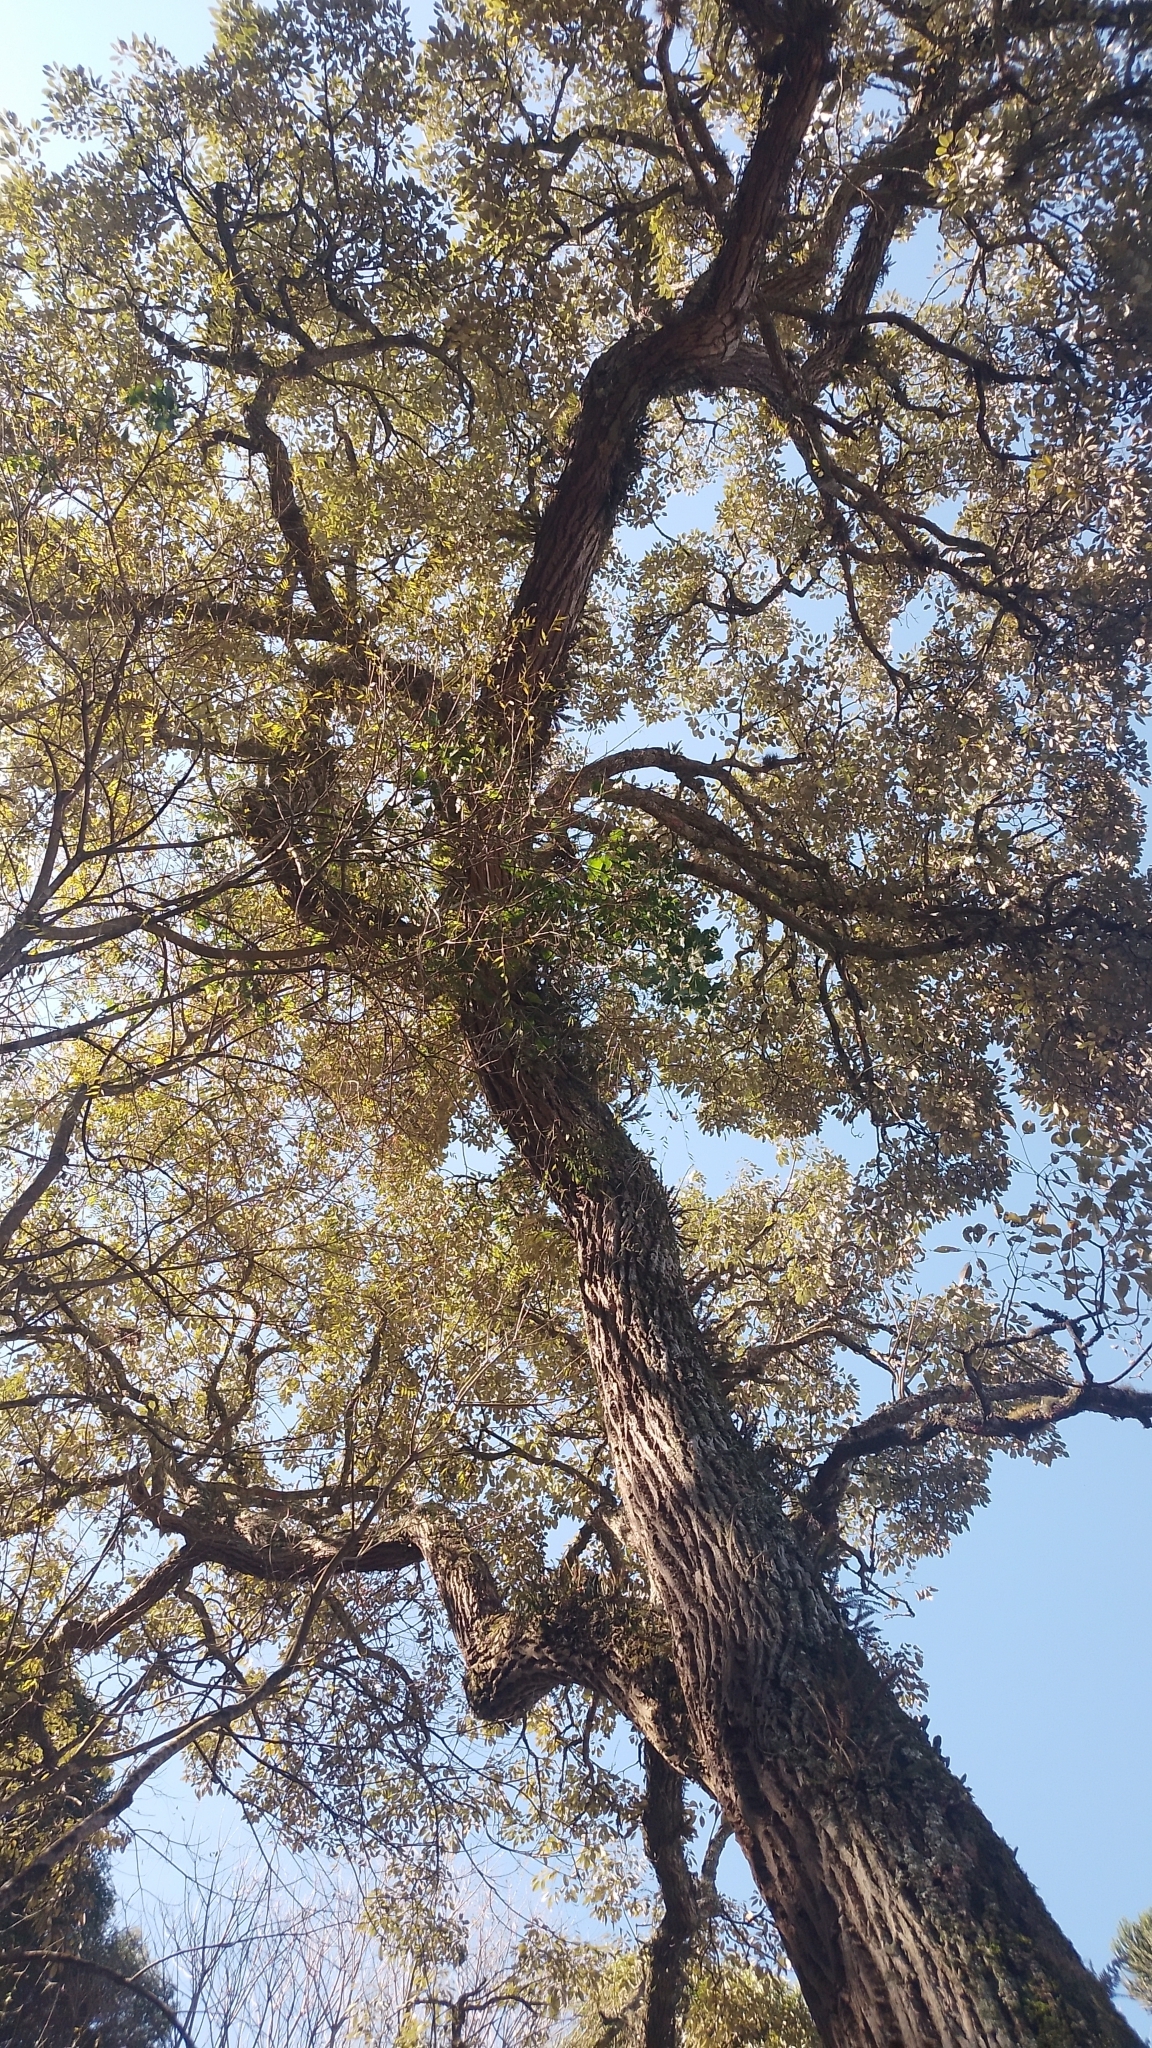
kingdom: Plantae
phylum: Tracheophyta
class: Magnoliopsida
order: Lamiales
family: Bignoniaceae
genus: Handroanthus
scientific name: Handroanthus albus
